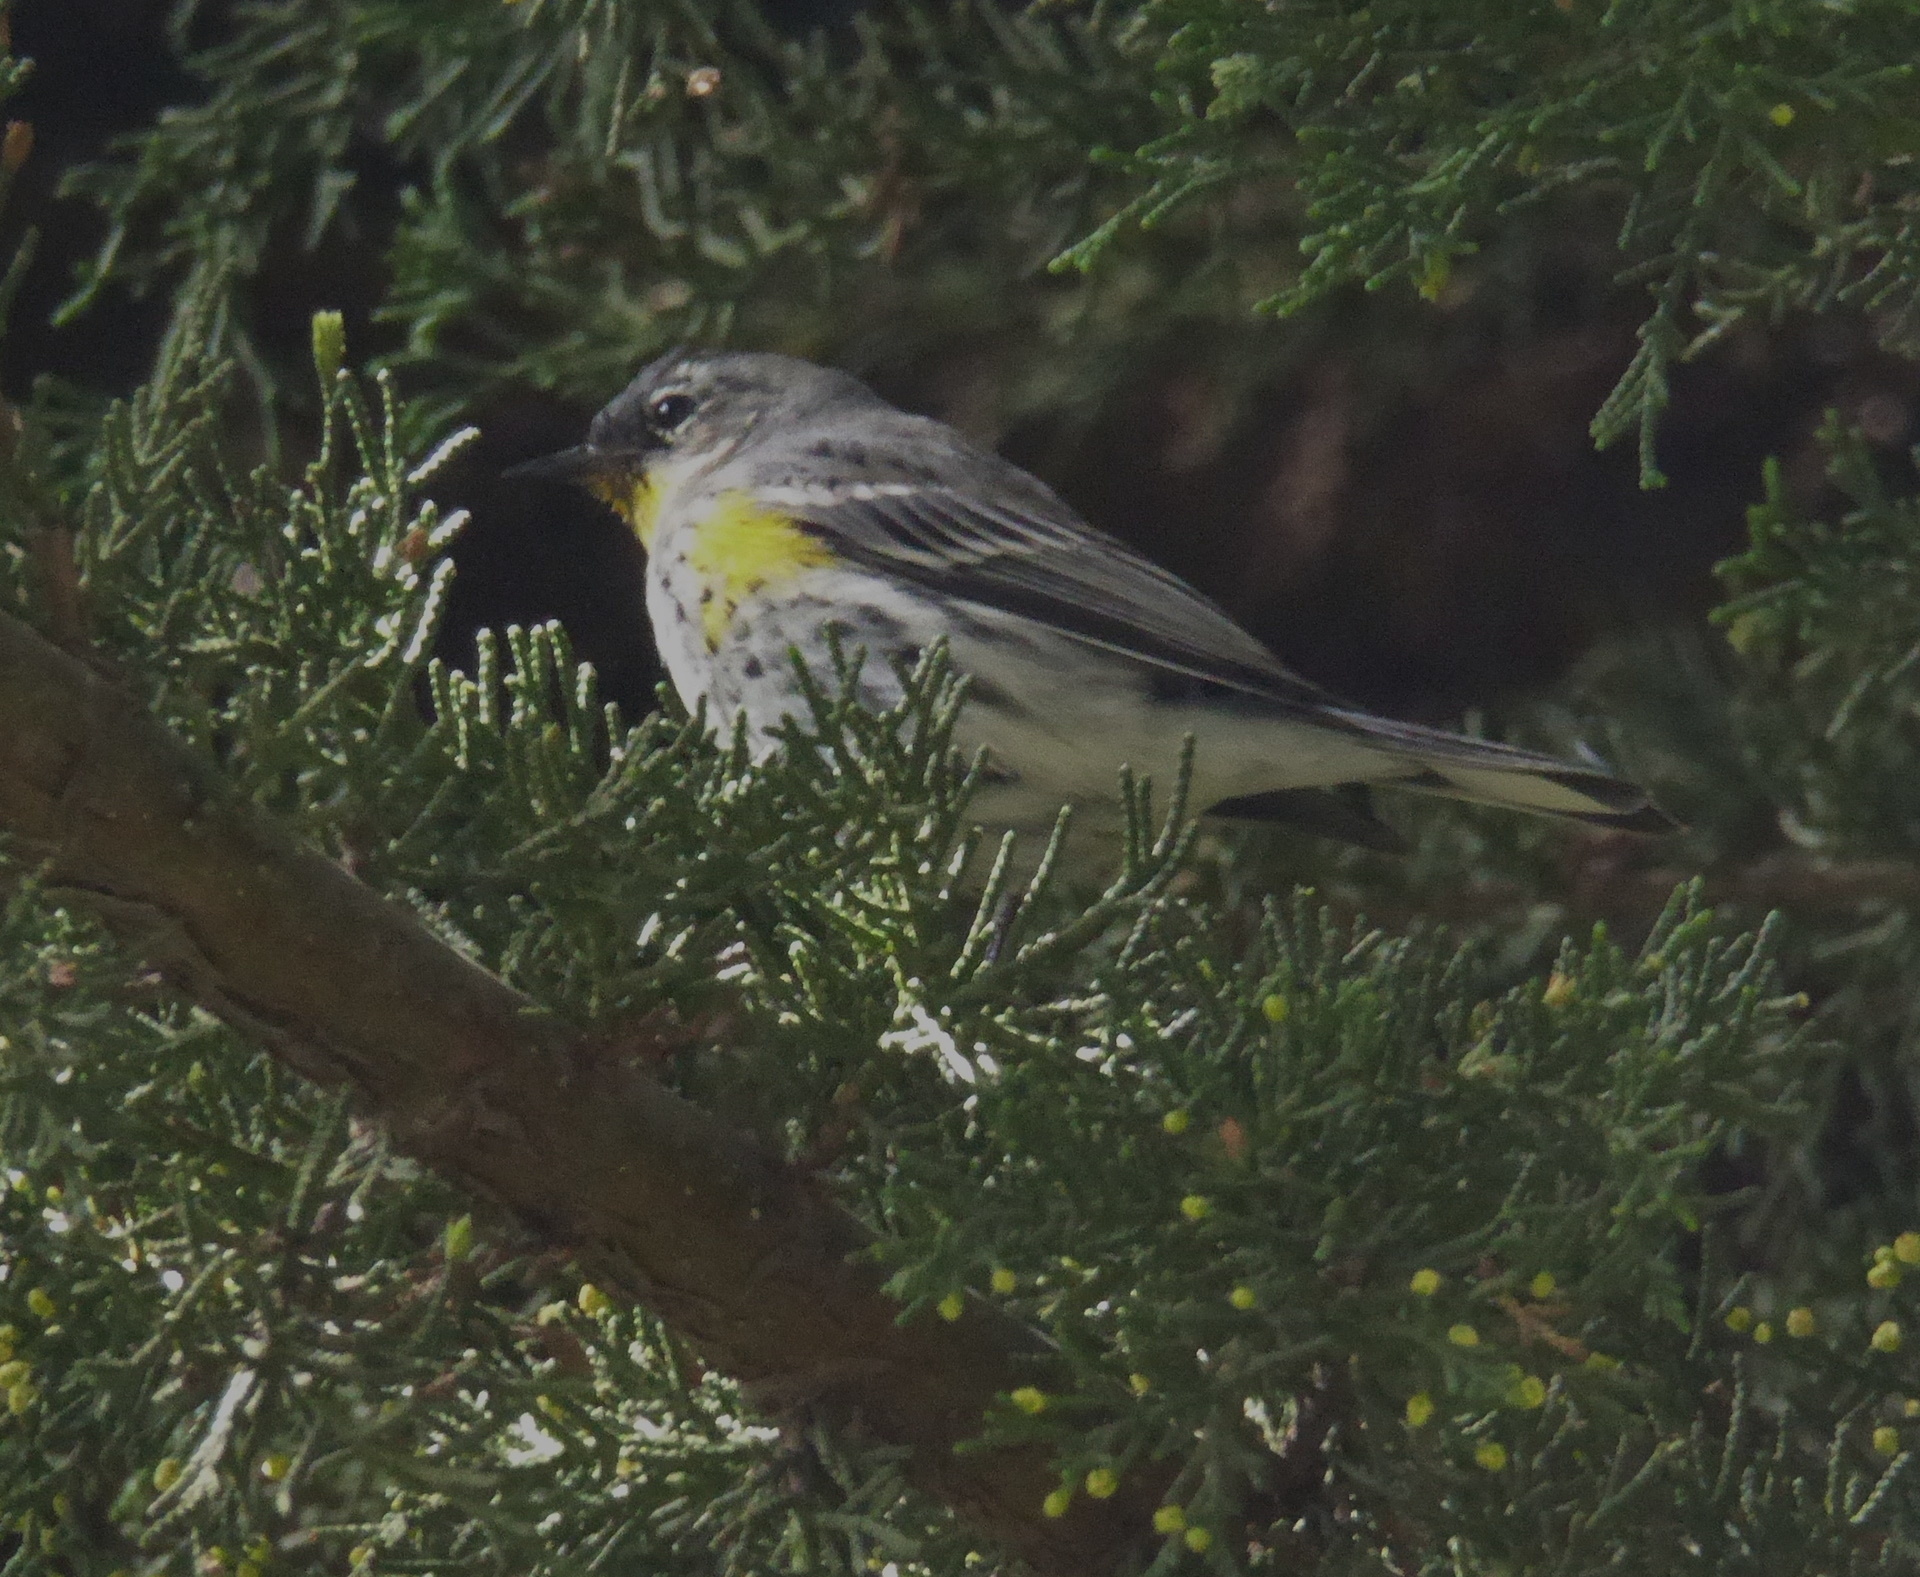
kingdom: Animalia
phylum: Chordata
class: Aves
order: Passeriformes
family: Parulidae
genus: Setophaga
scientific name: Setophaga auduboni
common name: Audubon's warbler
